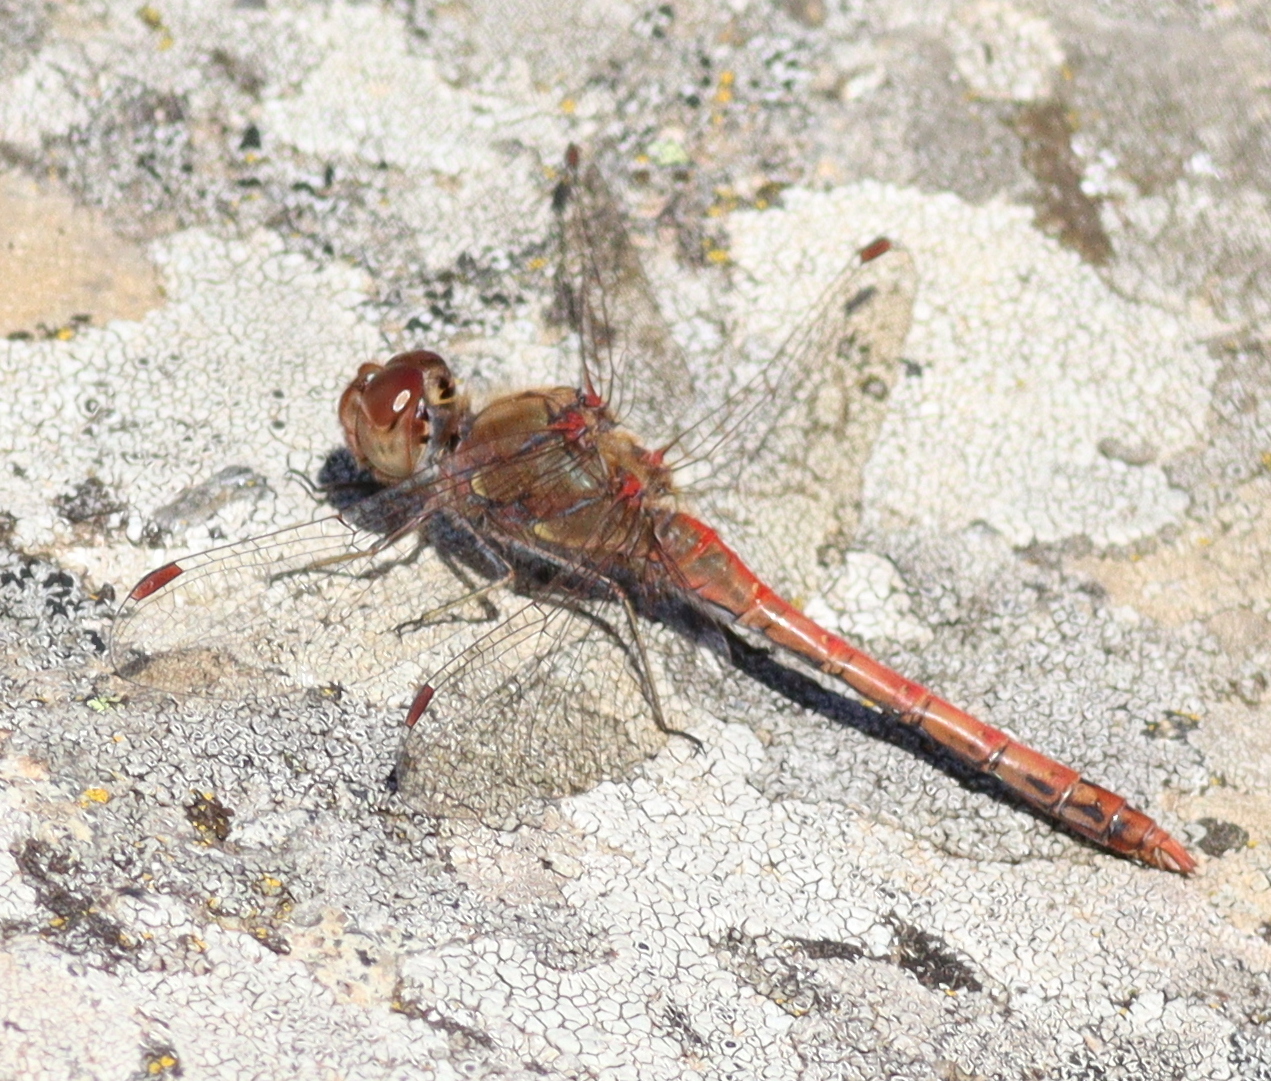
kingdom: Animalia
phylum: Arthropoda
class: Insecta
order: Odonata
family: Libellulidae
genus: Sympetrum
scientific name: Sympetrum striolatum
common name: Common darter
